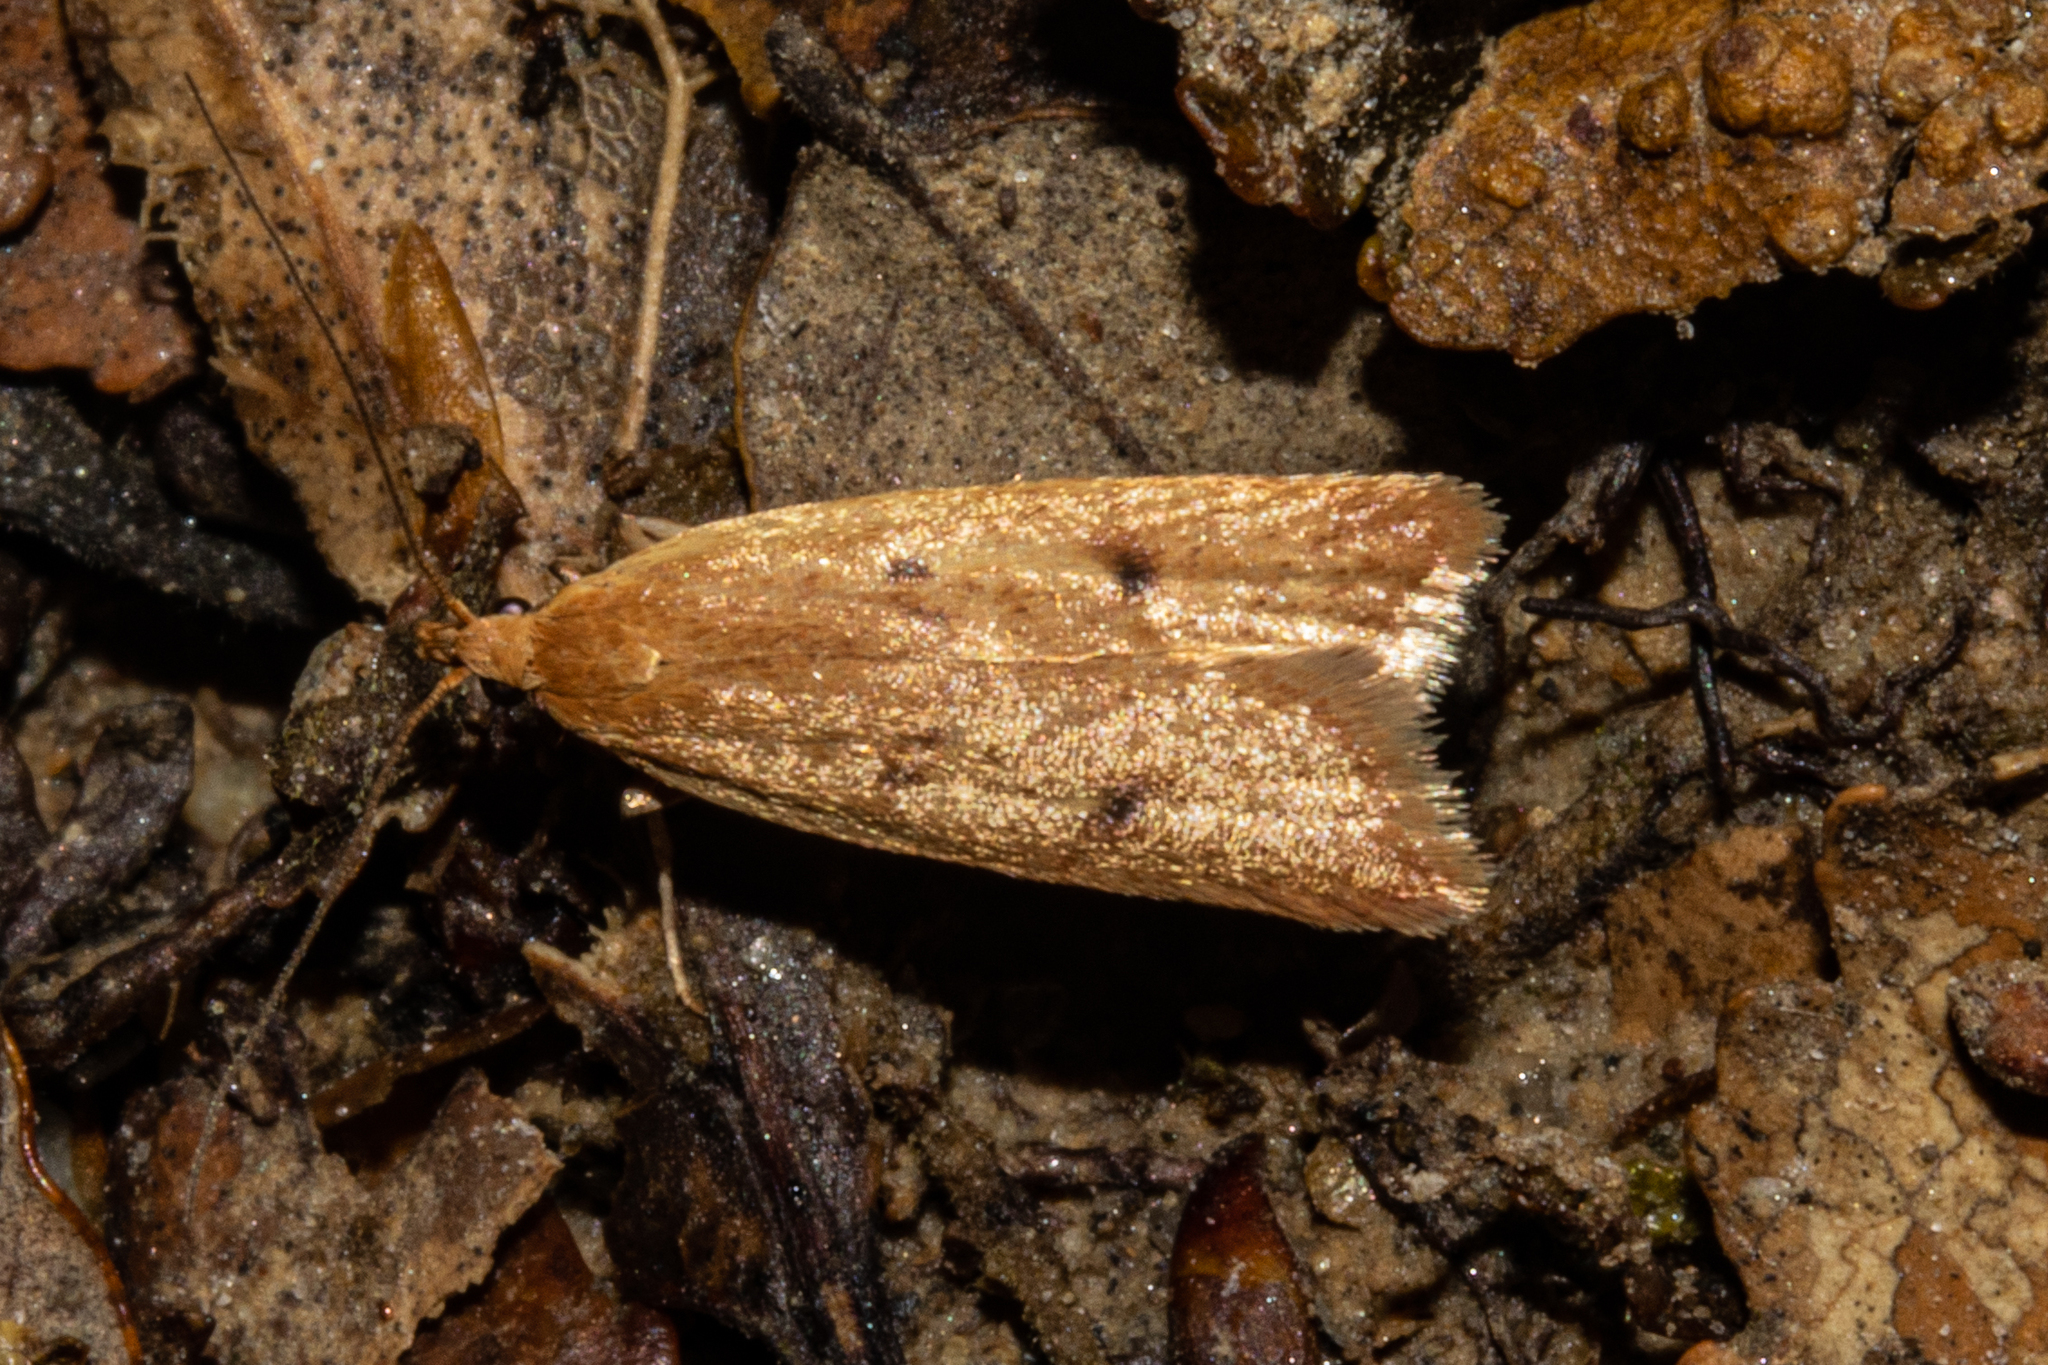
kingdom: Animalia
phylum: Arthropoda
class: Insecta
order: Lepidoptera
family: Oecophoridae
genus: Gymnobathra
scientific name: Gymnobathra sarcoxantha
